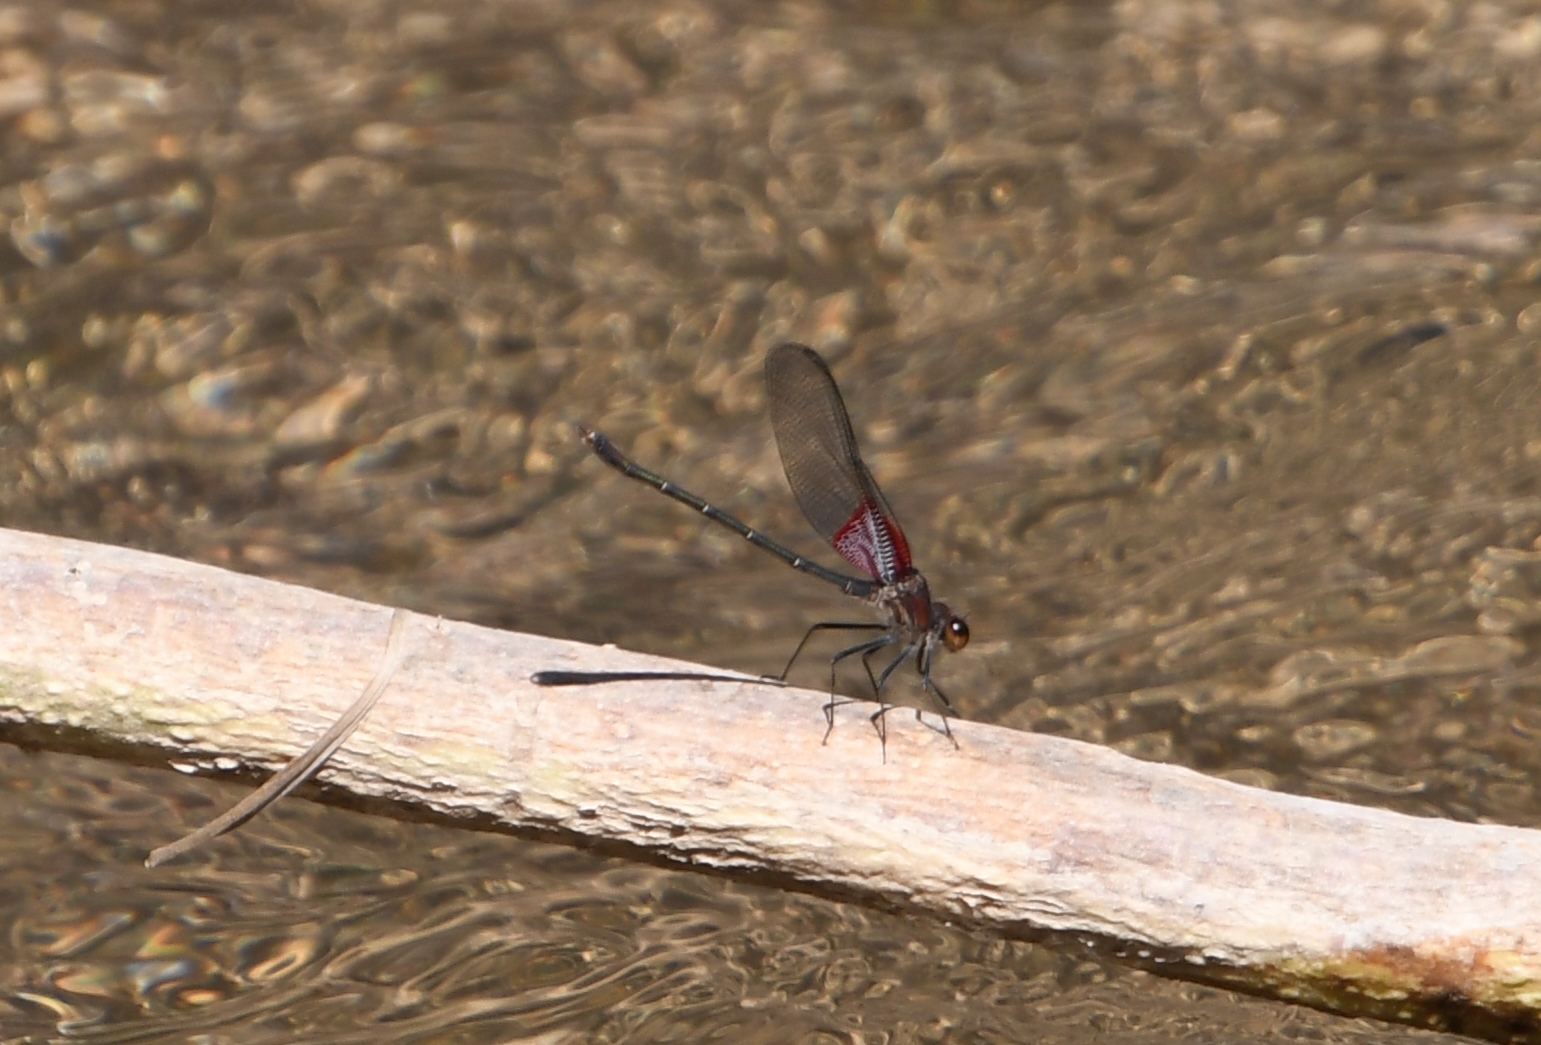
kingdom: Animalia
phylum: Arthropoda
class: Insecta
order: Odonata
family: Calopterygidae
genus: Hetaerina
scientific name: Hetaerina americana
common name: American rubyspot
